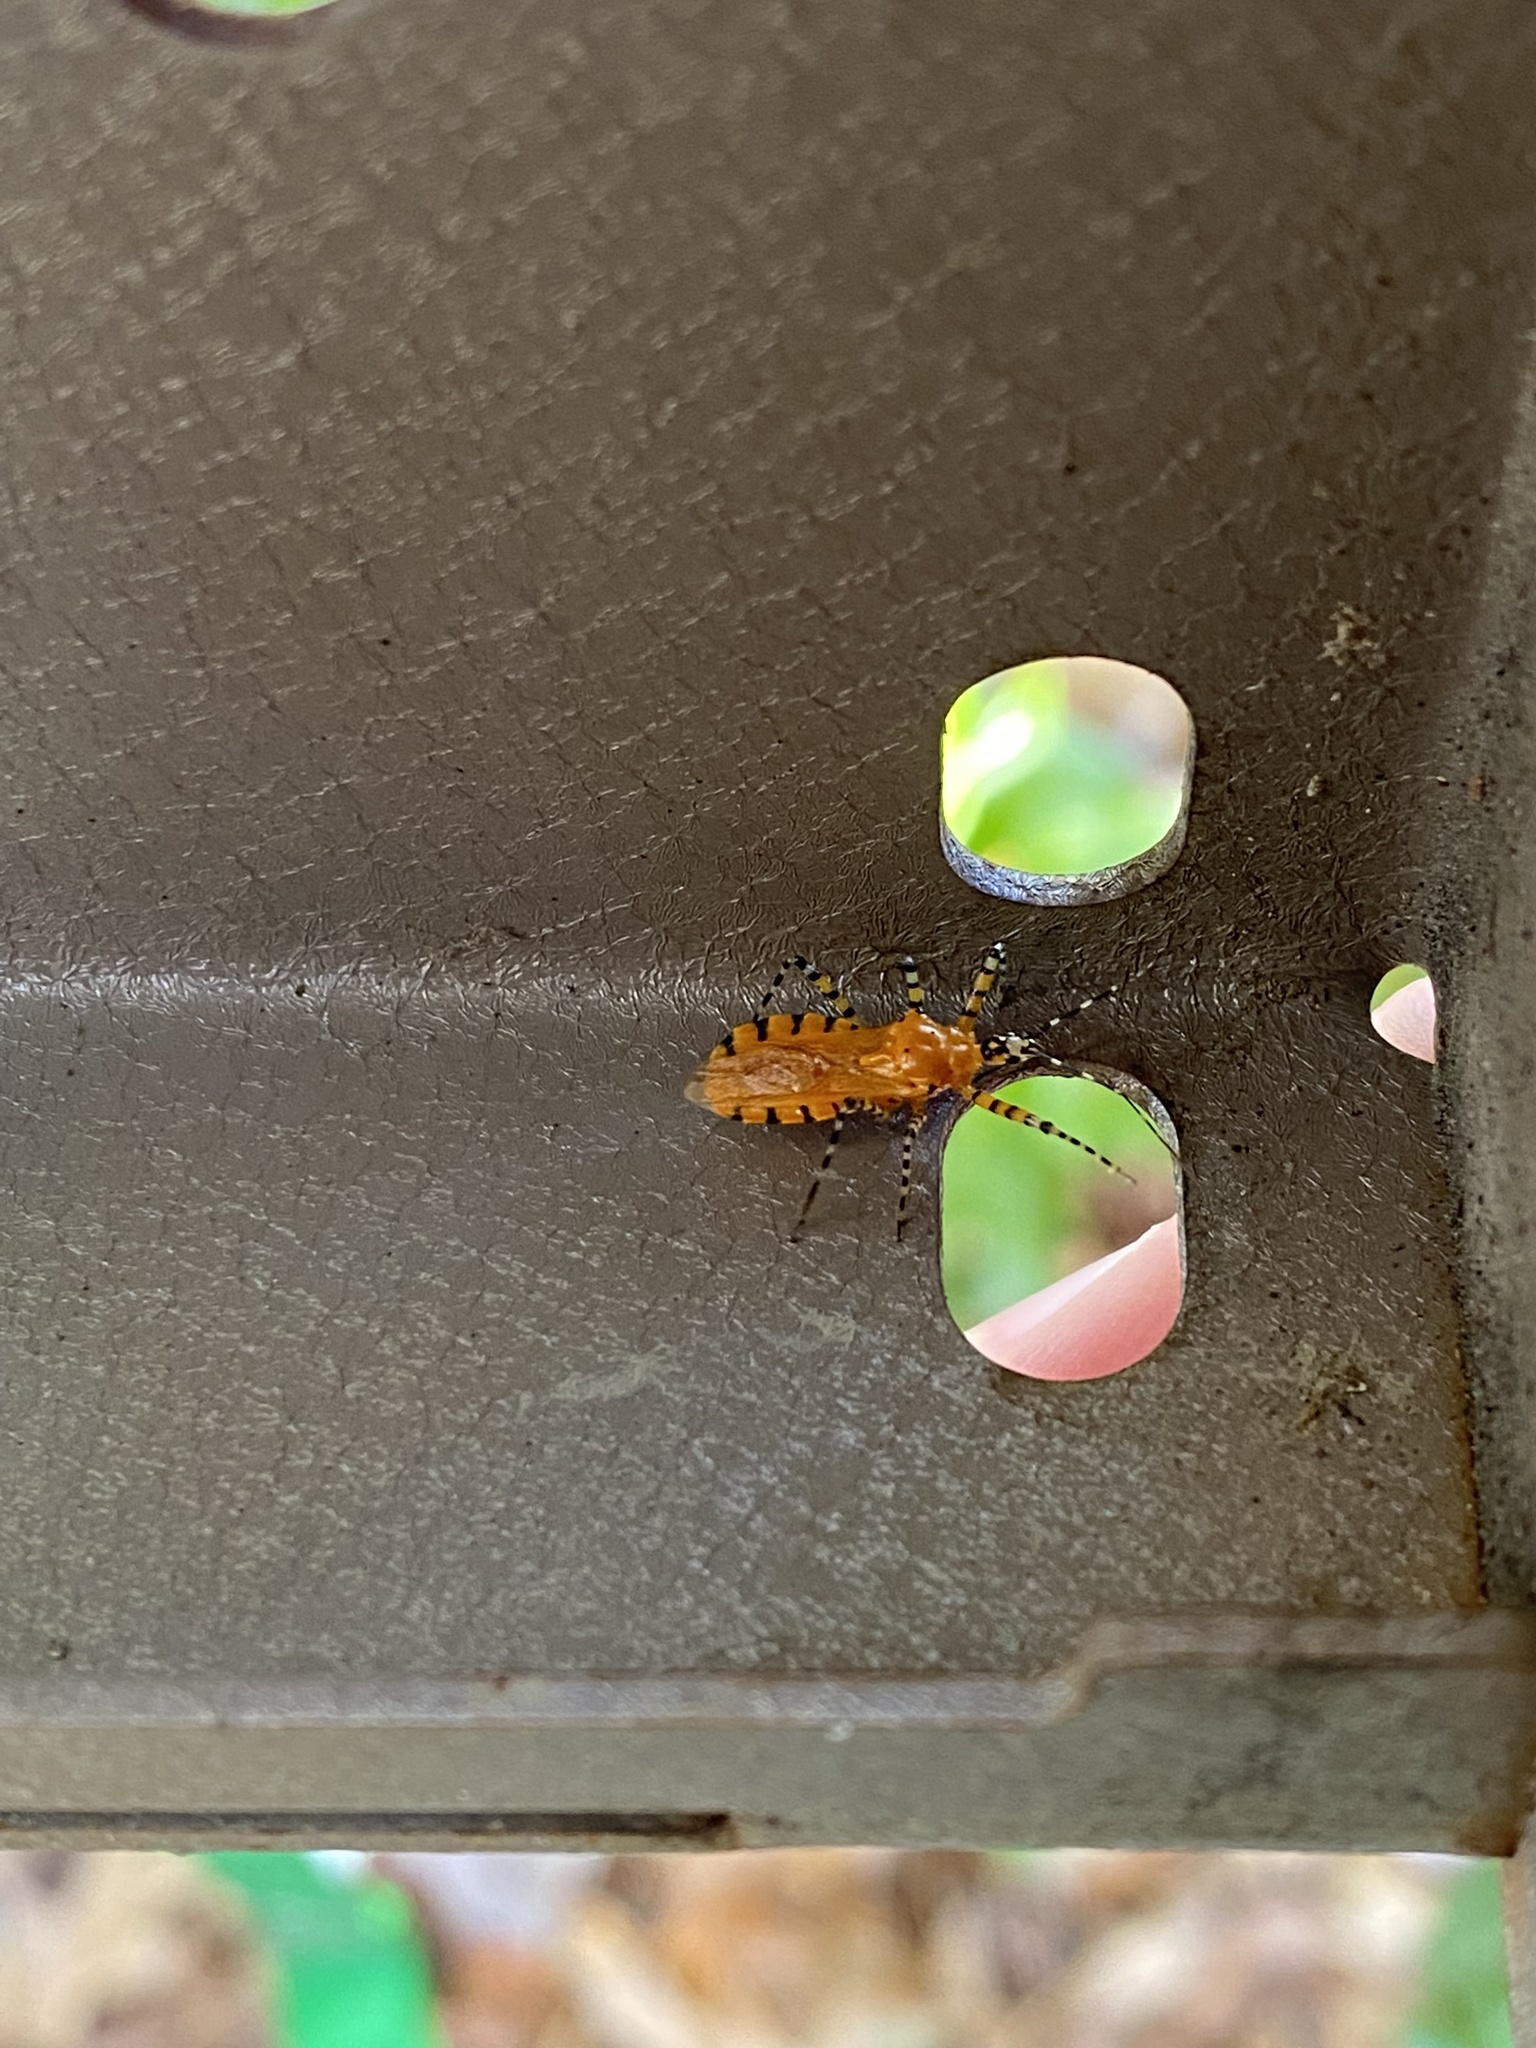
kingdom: Animalia
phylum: Arthropoda
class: Insecta
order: Hemiptera
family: Reduviidae
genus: Pselliopus
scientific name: Pselliopus barberi
